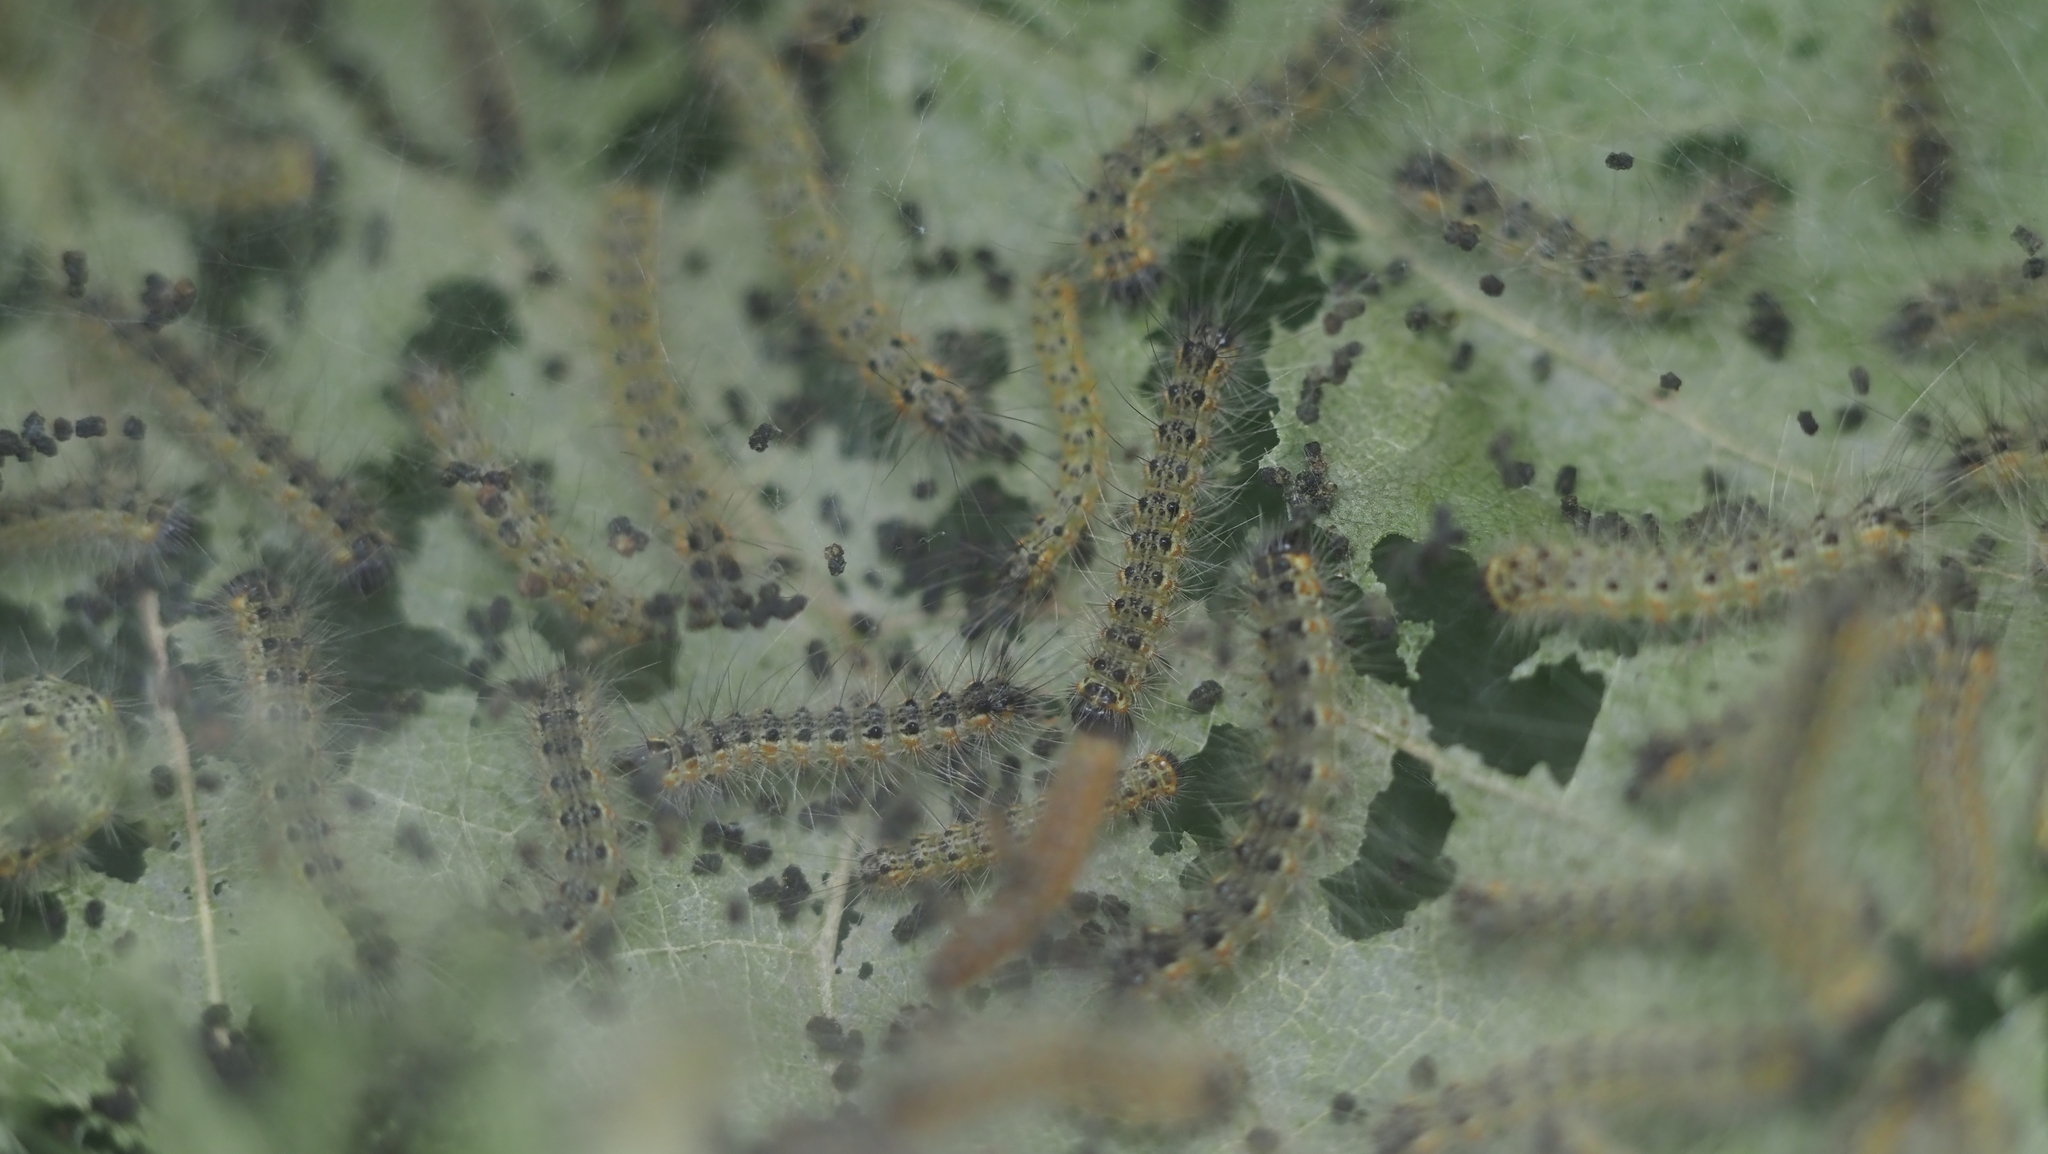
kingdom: Animalia
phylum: Arthropoda
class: Insecta
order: Lepidoptera
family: Erebidae
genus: Hyphantria
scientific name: Hyphantria cunea
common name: American white moth
